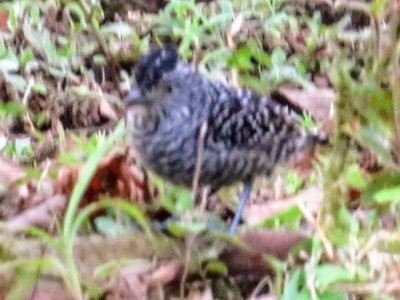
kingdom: Animalia
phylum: Chordata
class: Aves
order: Passeriformes
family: Thamnophilidae
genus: Thamnophilus
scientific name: Thamnophilus doliatus
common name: Barred antshrike
